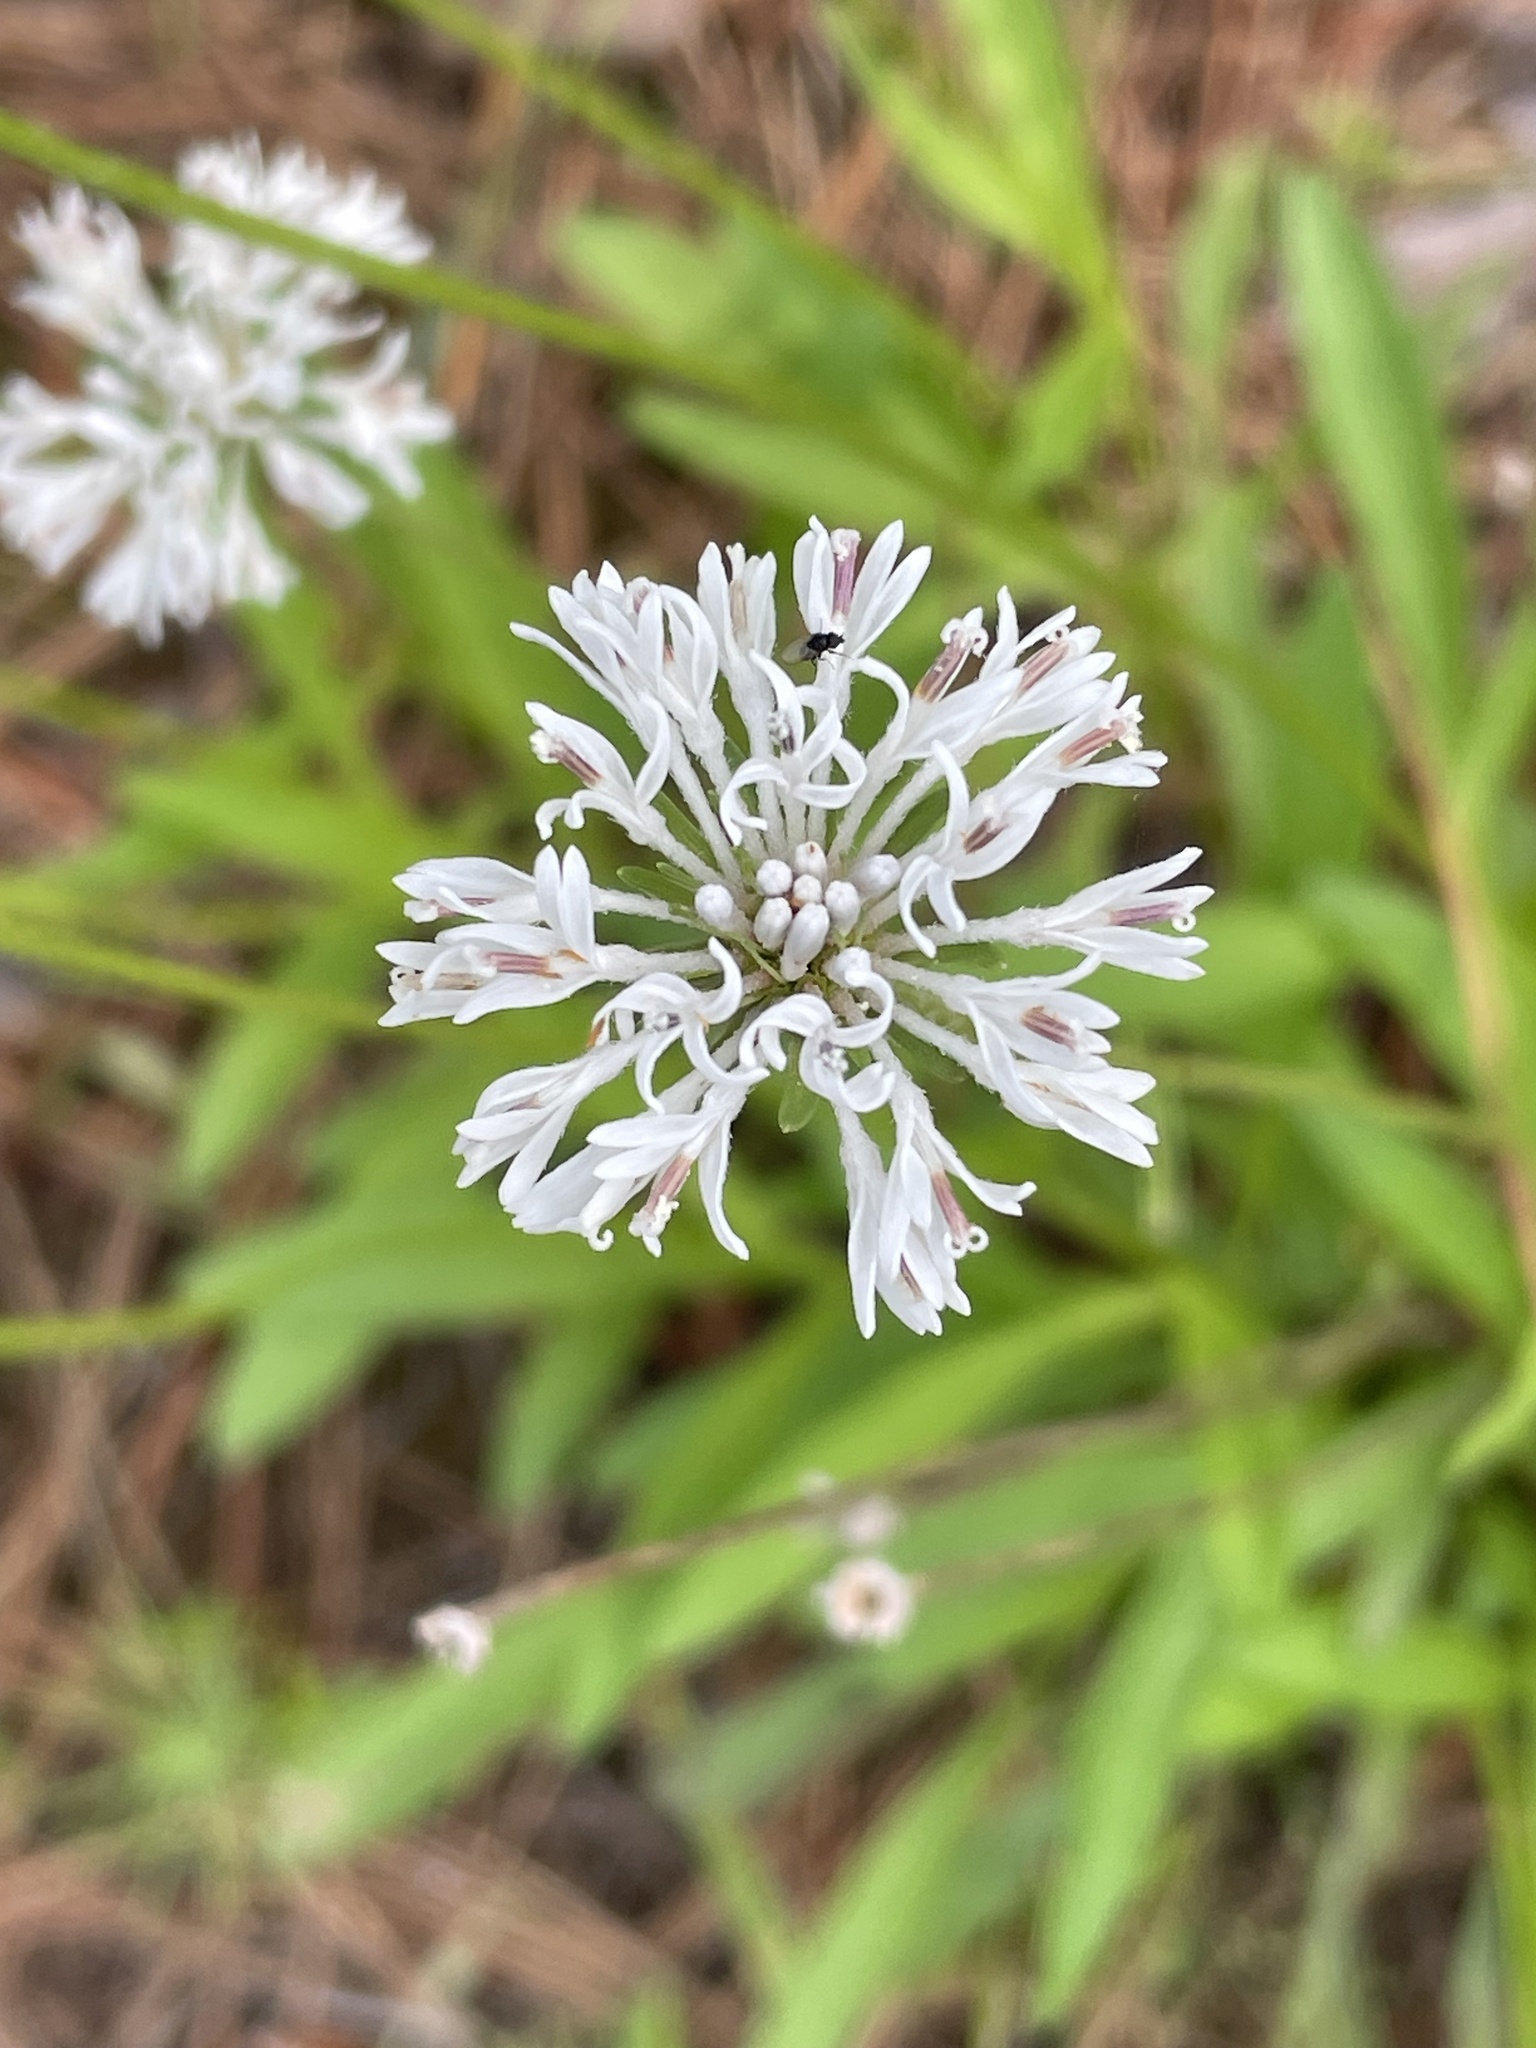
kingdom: Plantae
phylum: Tracheophyta
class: Magnoliopsida
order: Asterales
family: Asteraceae
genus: Marshallia
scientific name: Marshallia obovata
